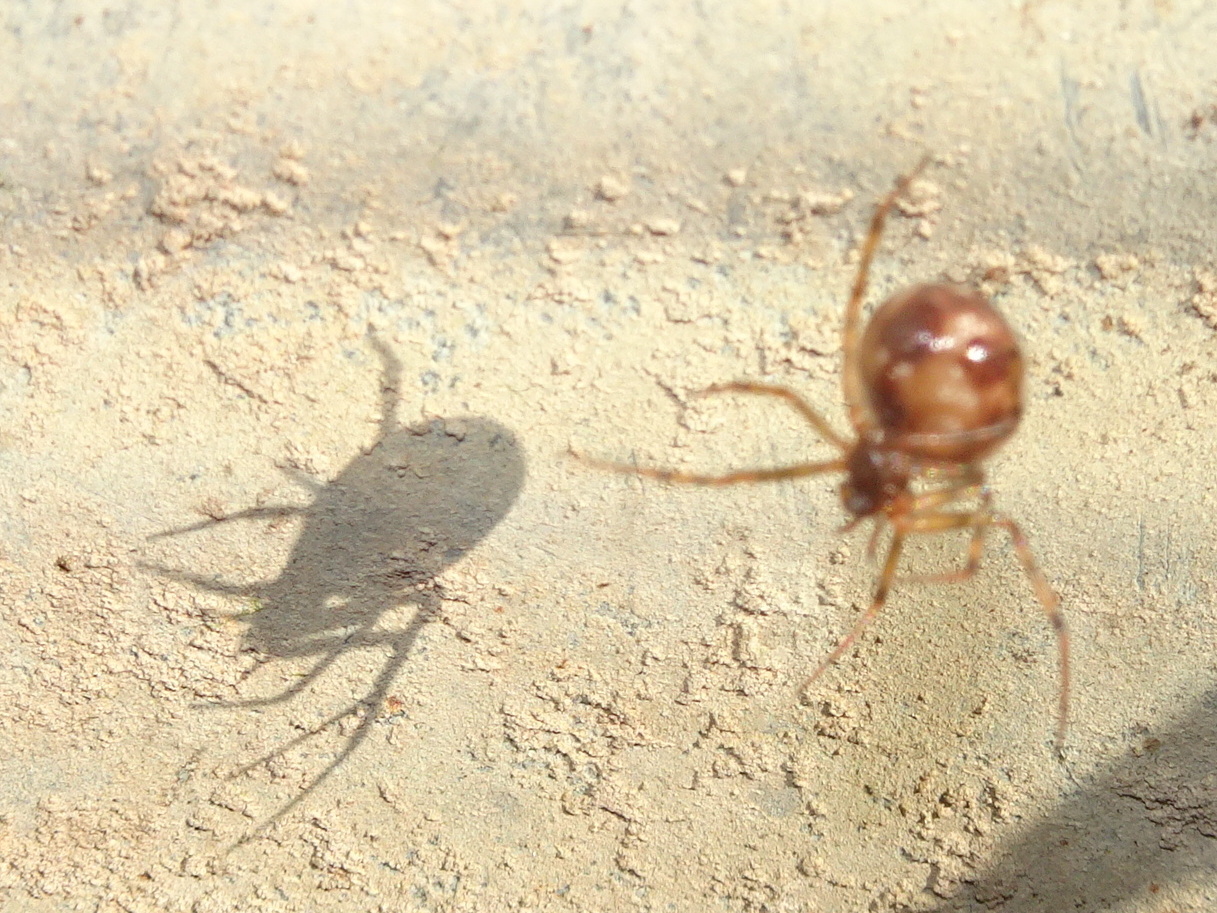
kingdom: Animalia
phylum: Arthropoda
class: Arachnida
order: Araneae
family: Theridiidae
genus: Steatoda
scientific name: Steatoda triangulosa
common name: Triangulate bud spider
